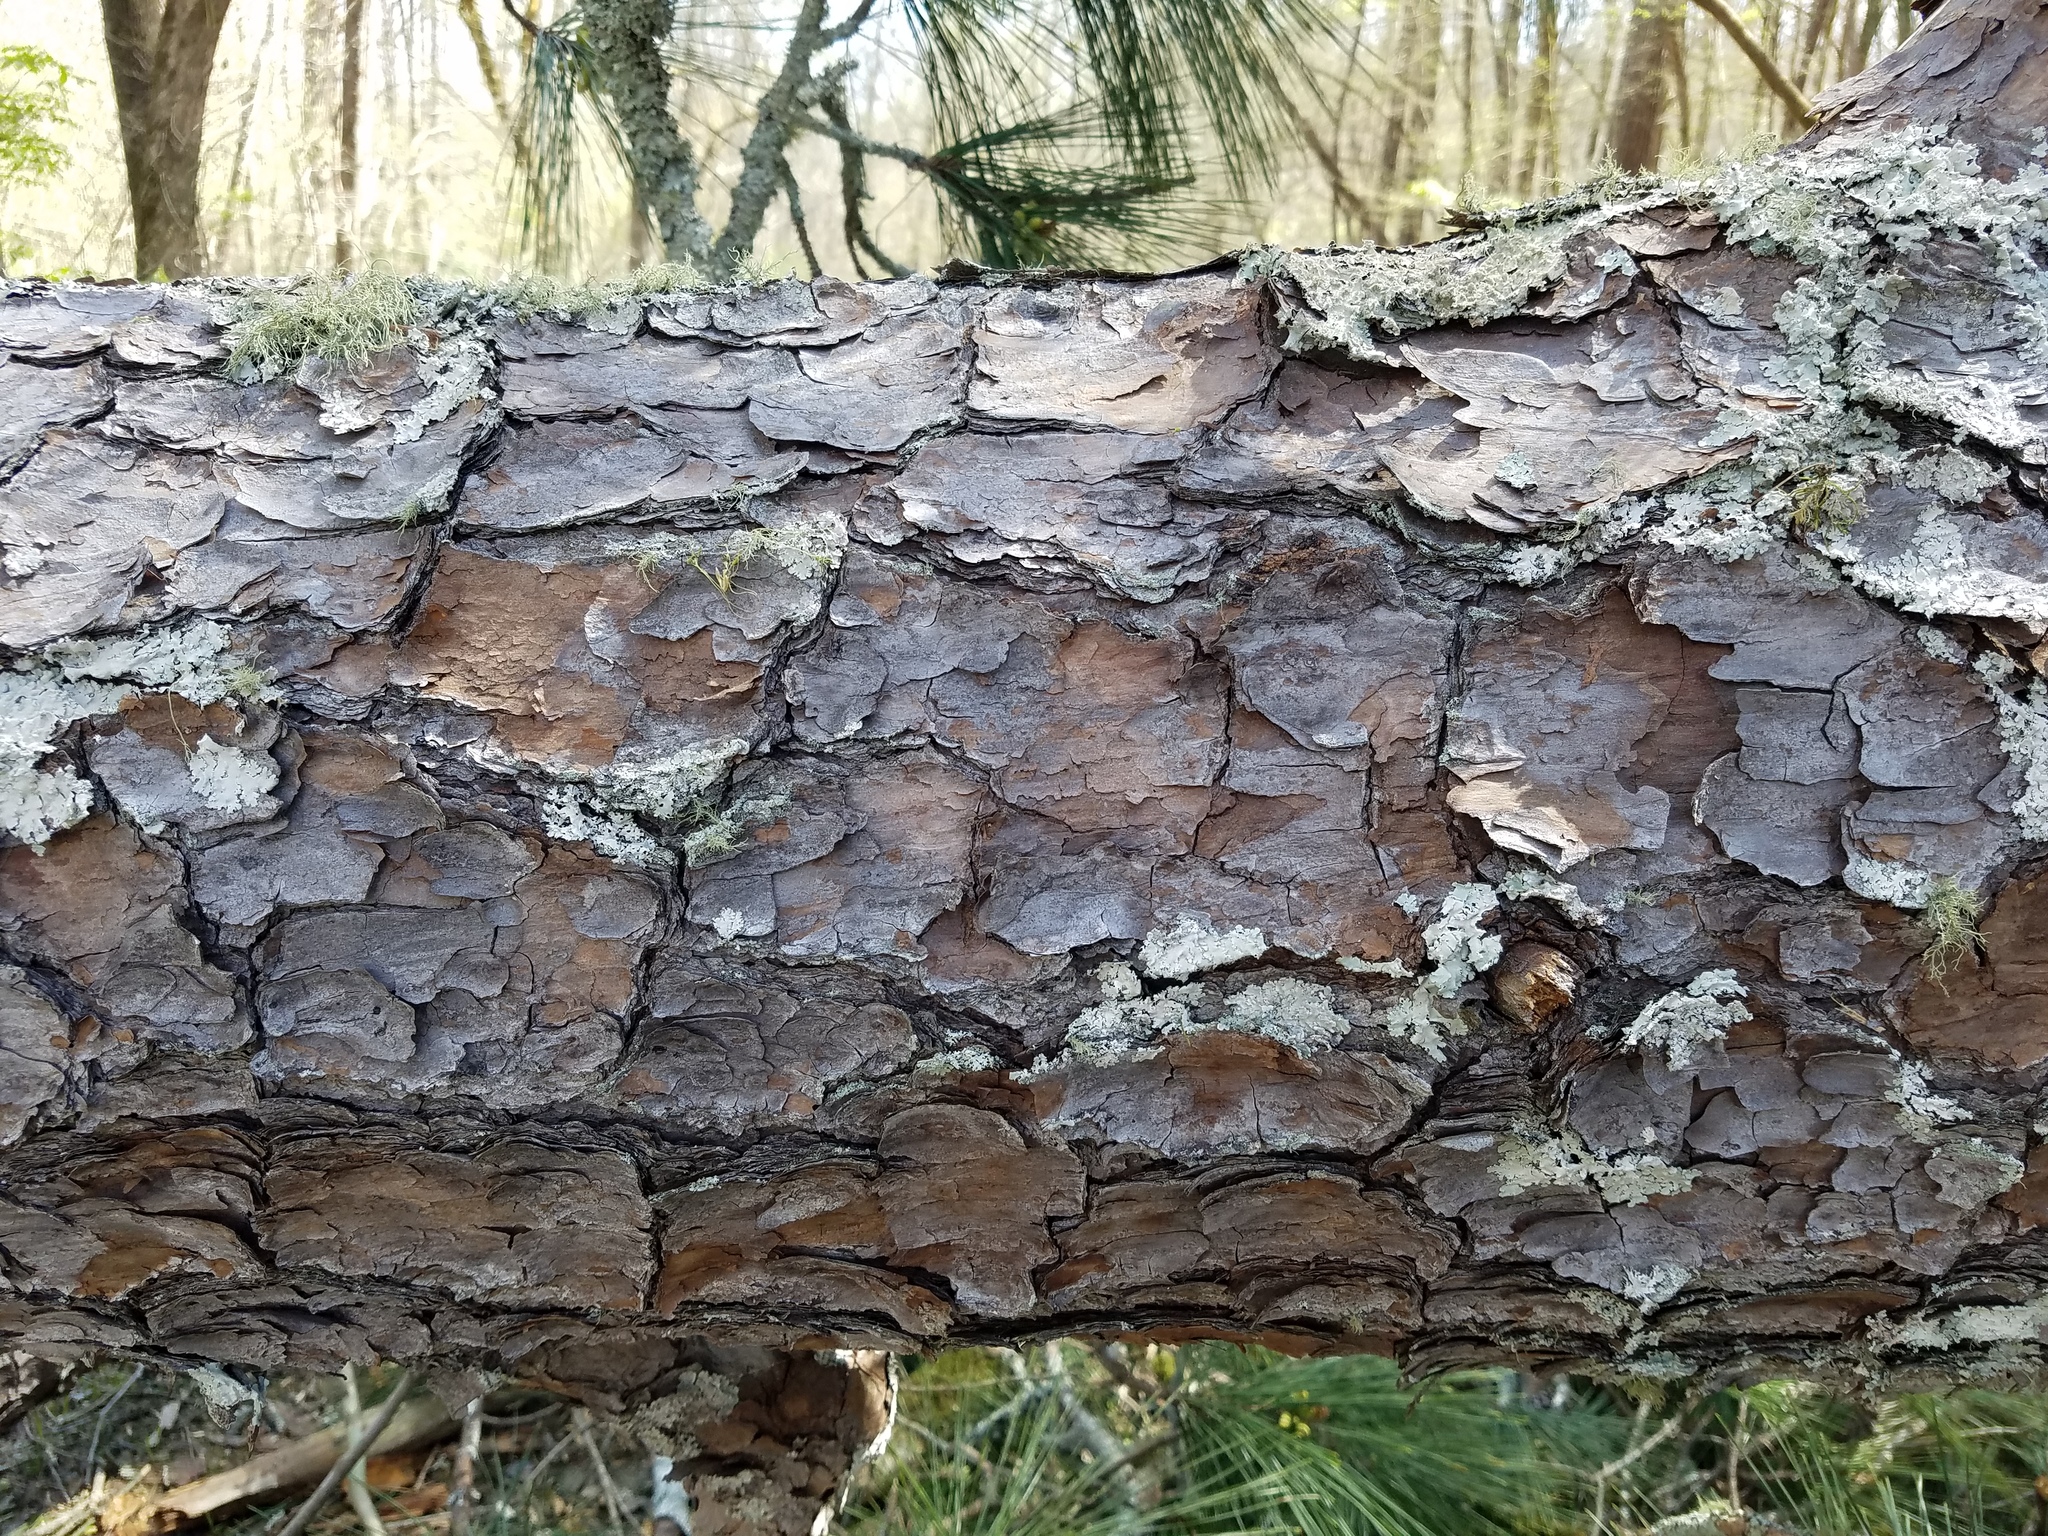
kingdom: Plantae
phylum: Tracheophyta
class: Pinopsida
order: Pinales
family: Pinaceae
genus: Pinus
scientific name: Pinus taeda
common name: Loblolly pine
